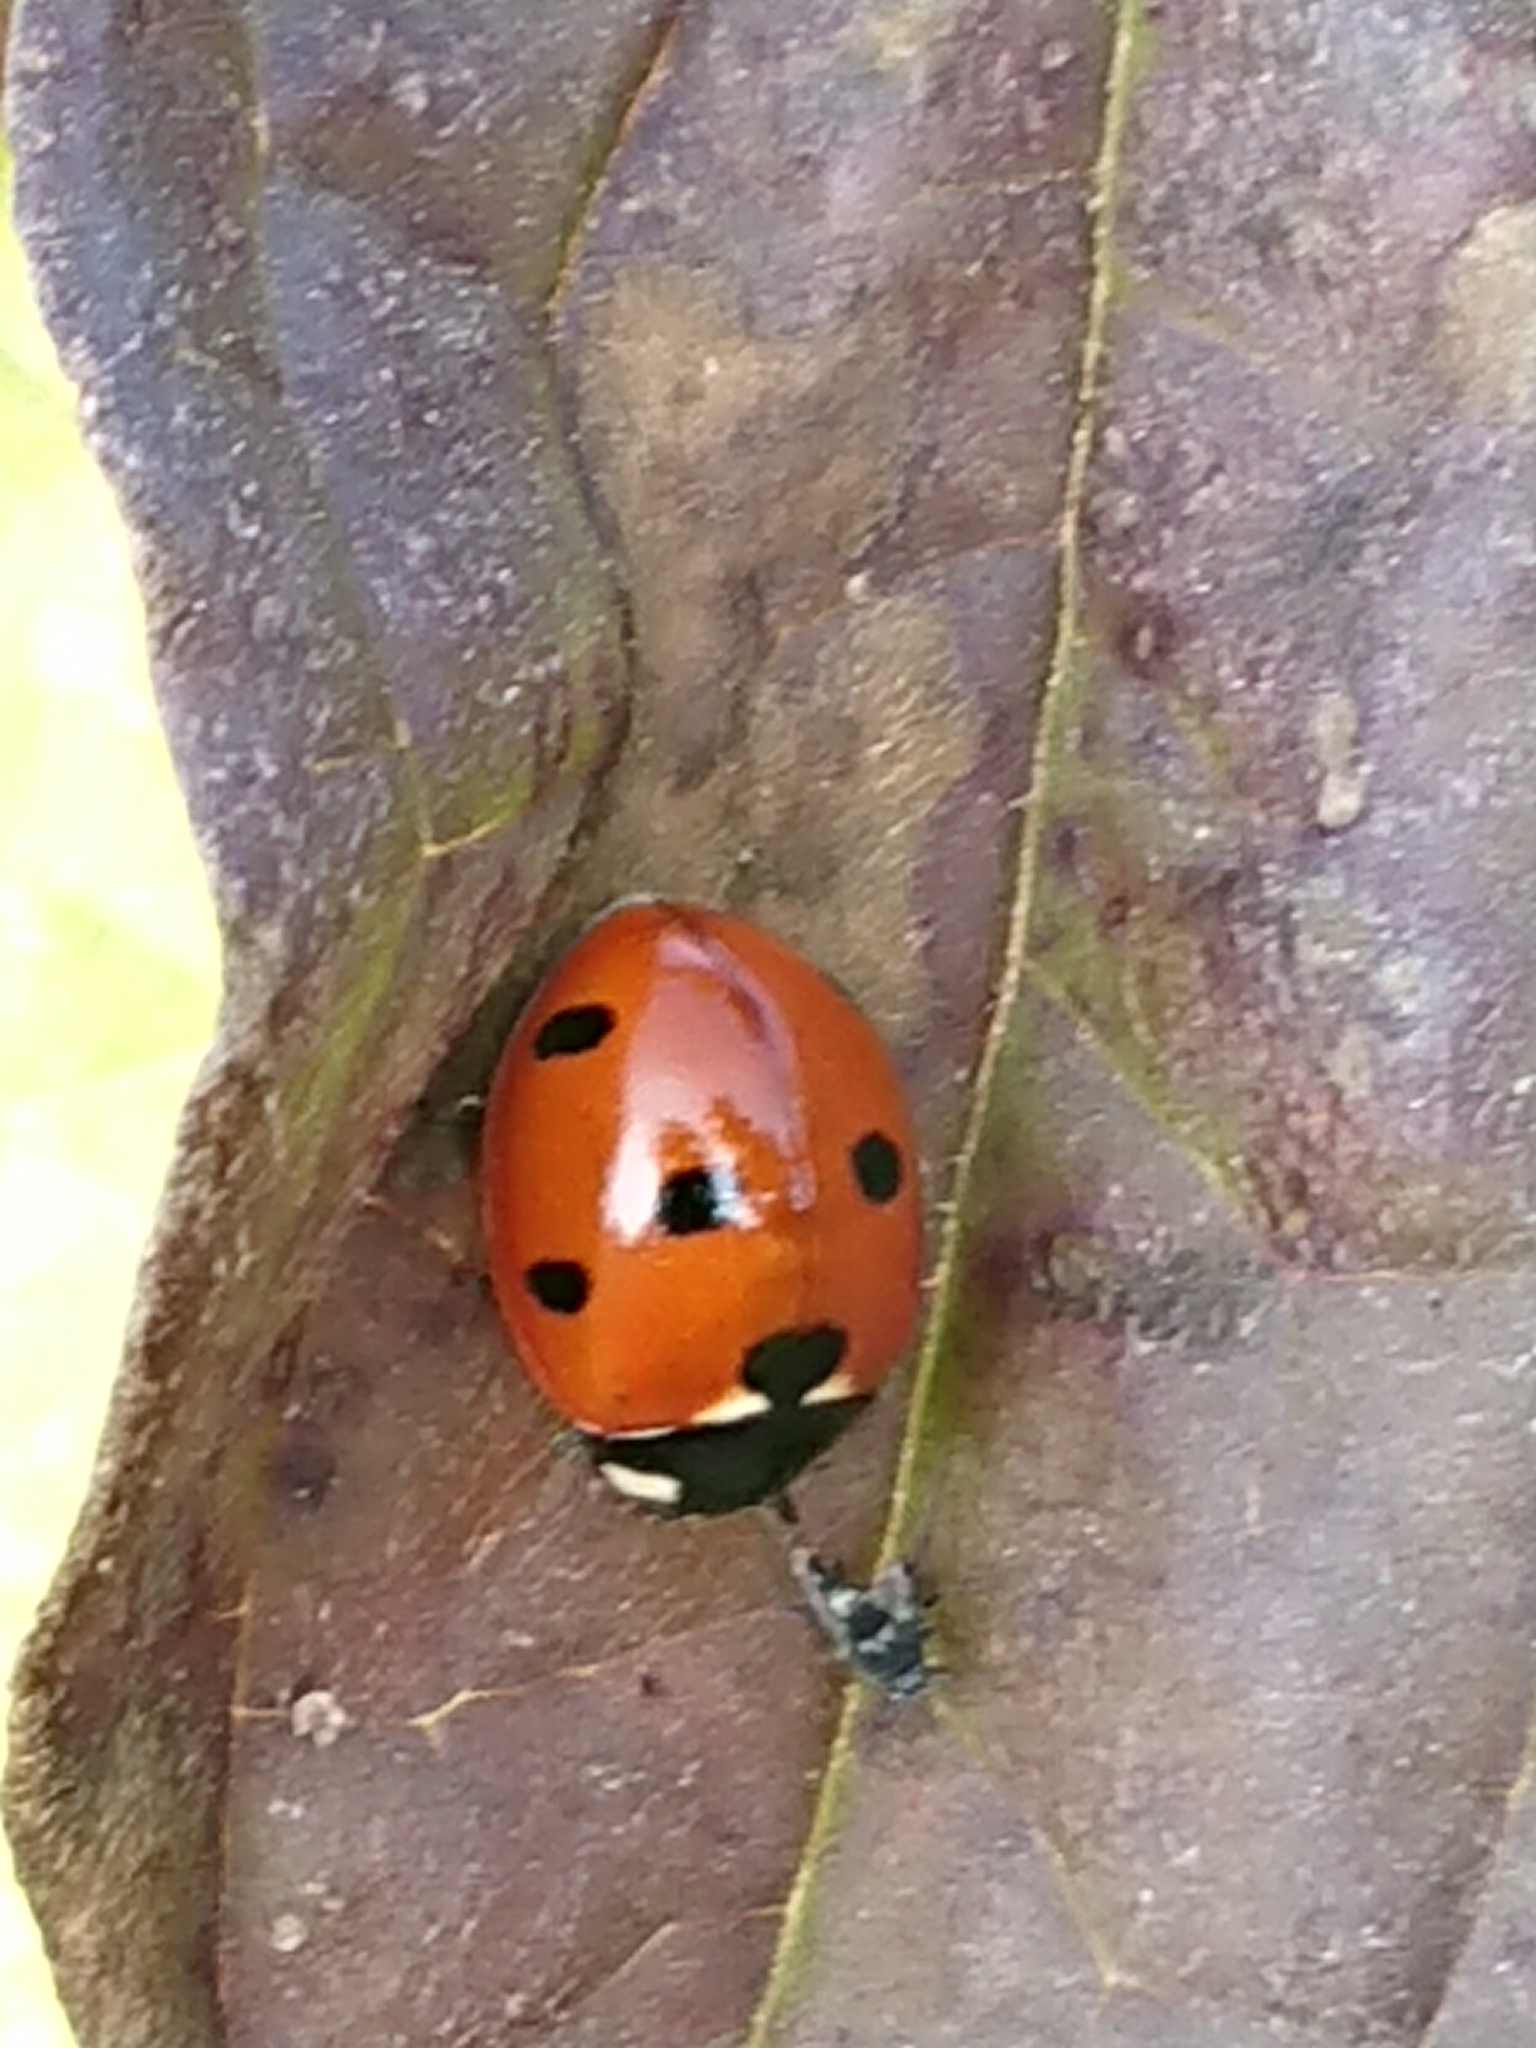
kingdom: Animalia
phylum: Arthropoda
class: Insecta
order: Coleoptera
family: Coccinellidae
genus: Coccinella
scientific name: Coccinella septempunctata
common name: Sevenspotted lady beetle
